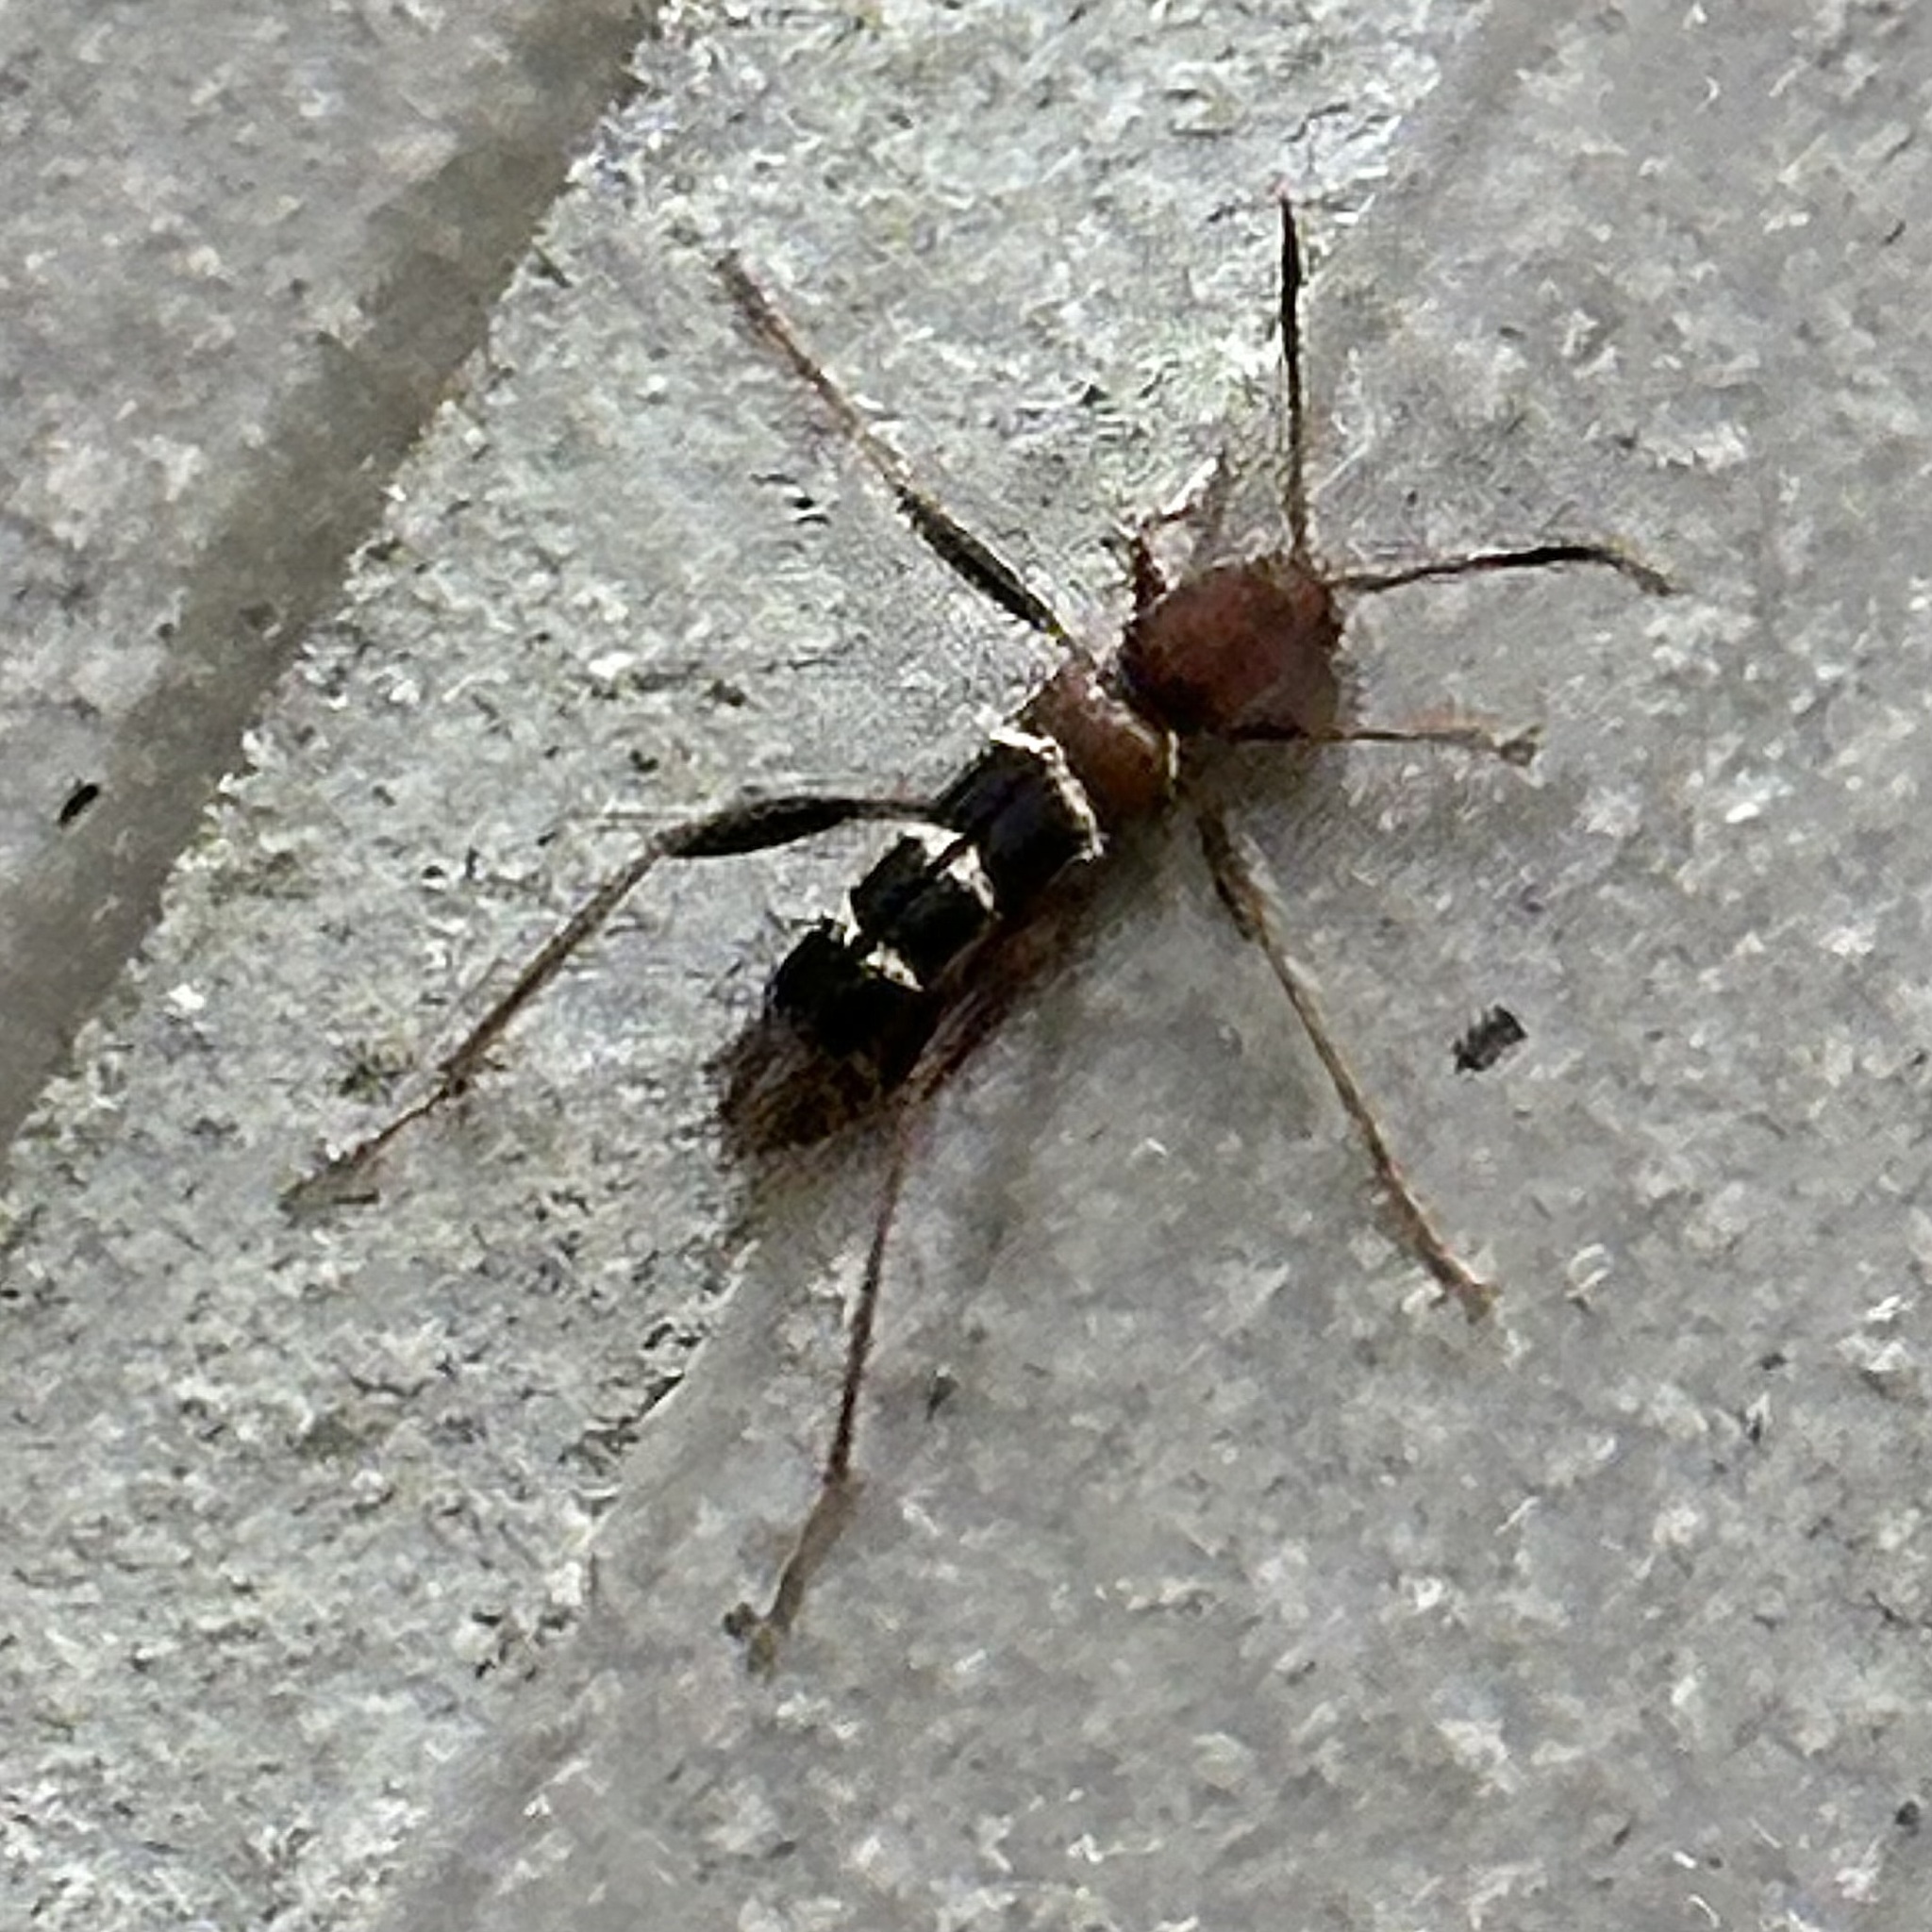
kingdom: Animalia
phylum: Arthropoda
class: Insecta
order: Coleoptera
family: Cerambycidae
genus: Neoclytus
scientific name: Neoclytus acuminatus
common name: Read-headed ash borer
